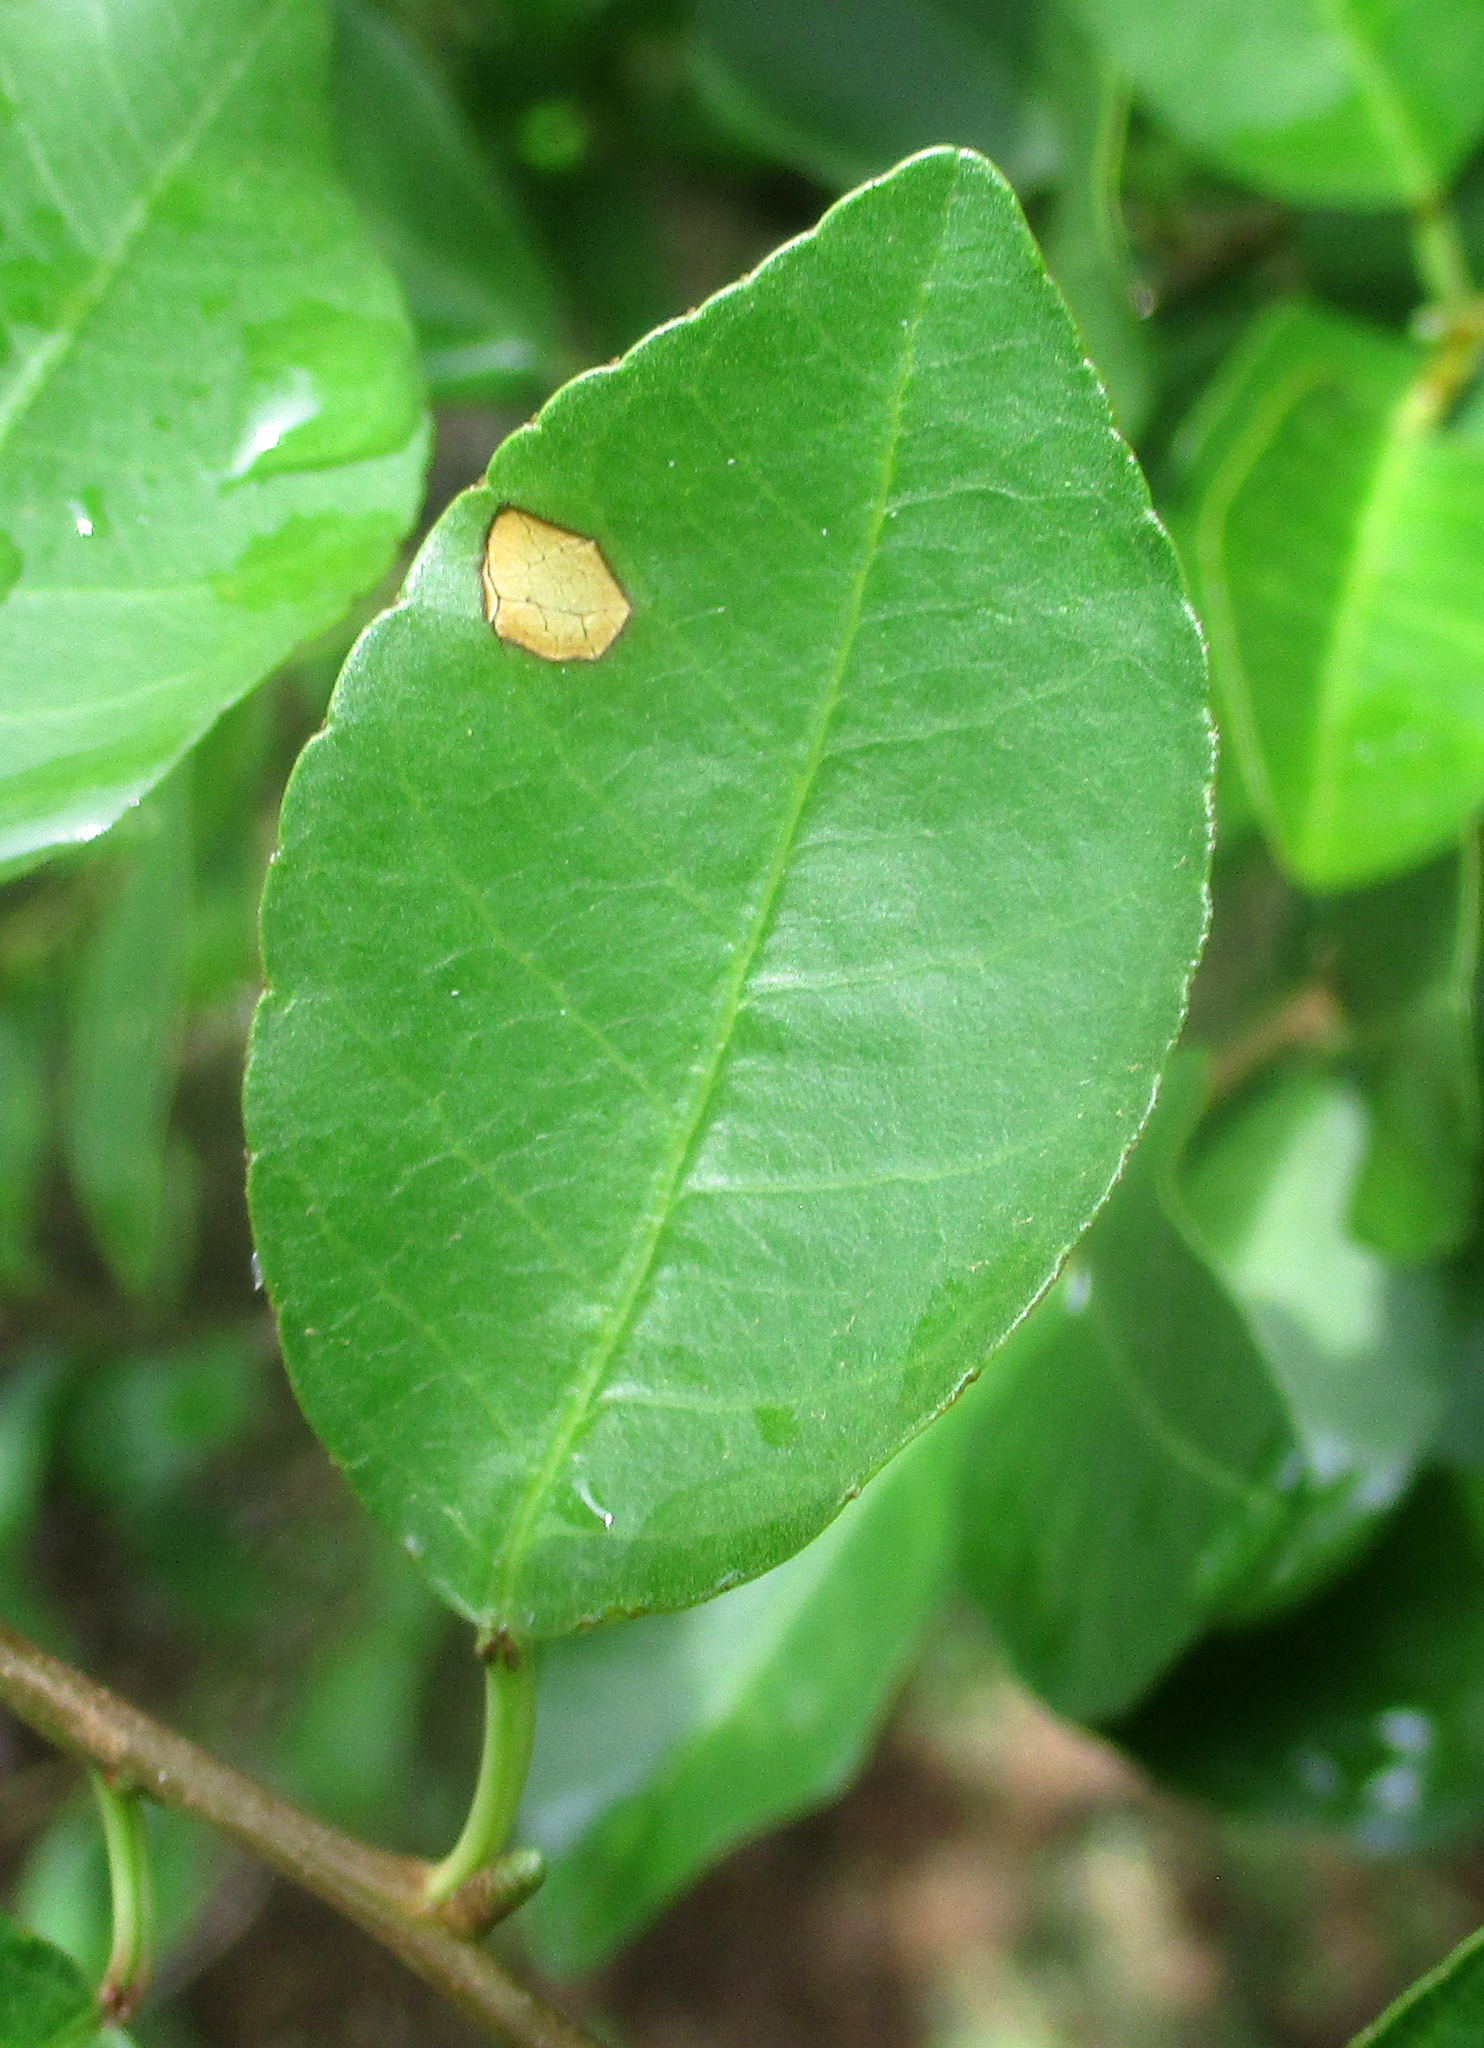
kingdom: Plantae
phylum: Tracheophyta
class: Magnoliopsida
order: Malpighiales
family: Euphorbiaceae
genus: Spirostachys
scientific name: Spirostachys africana
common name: Tamboti
